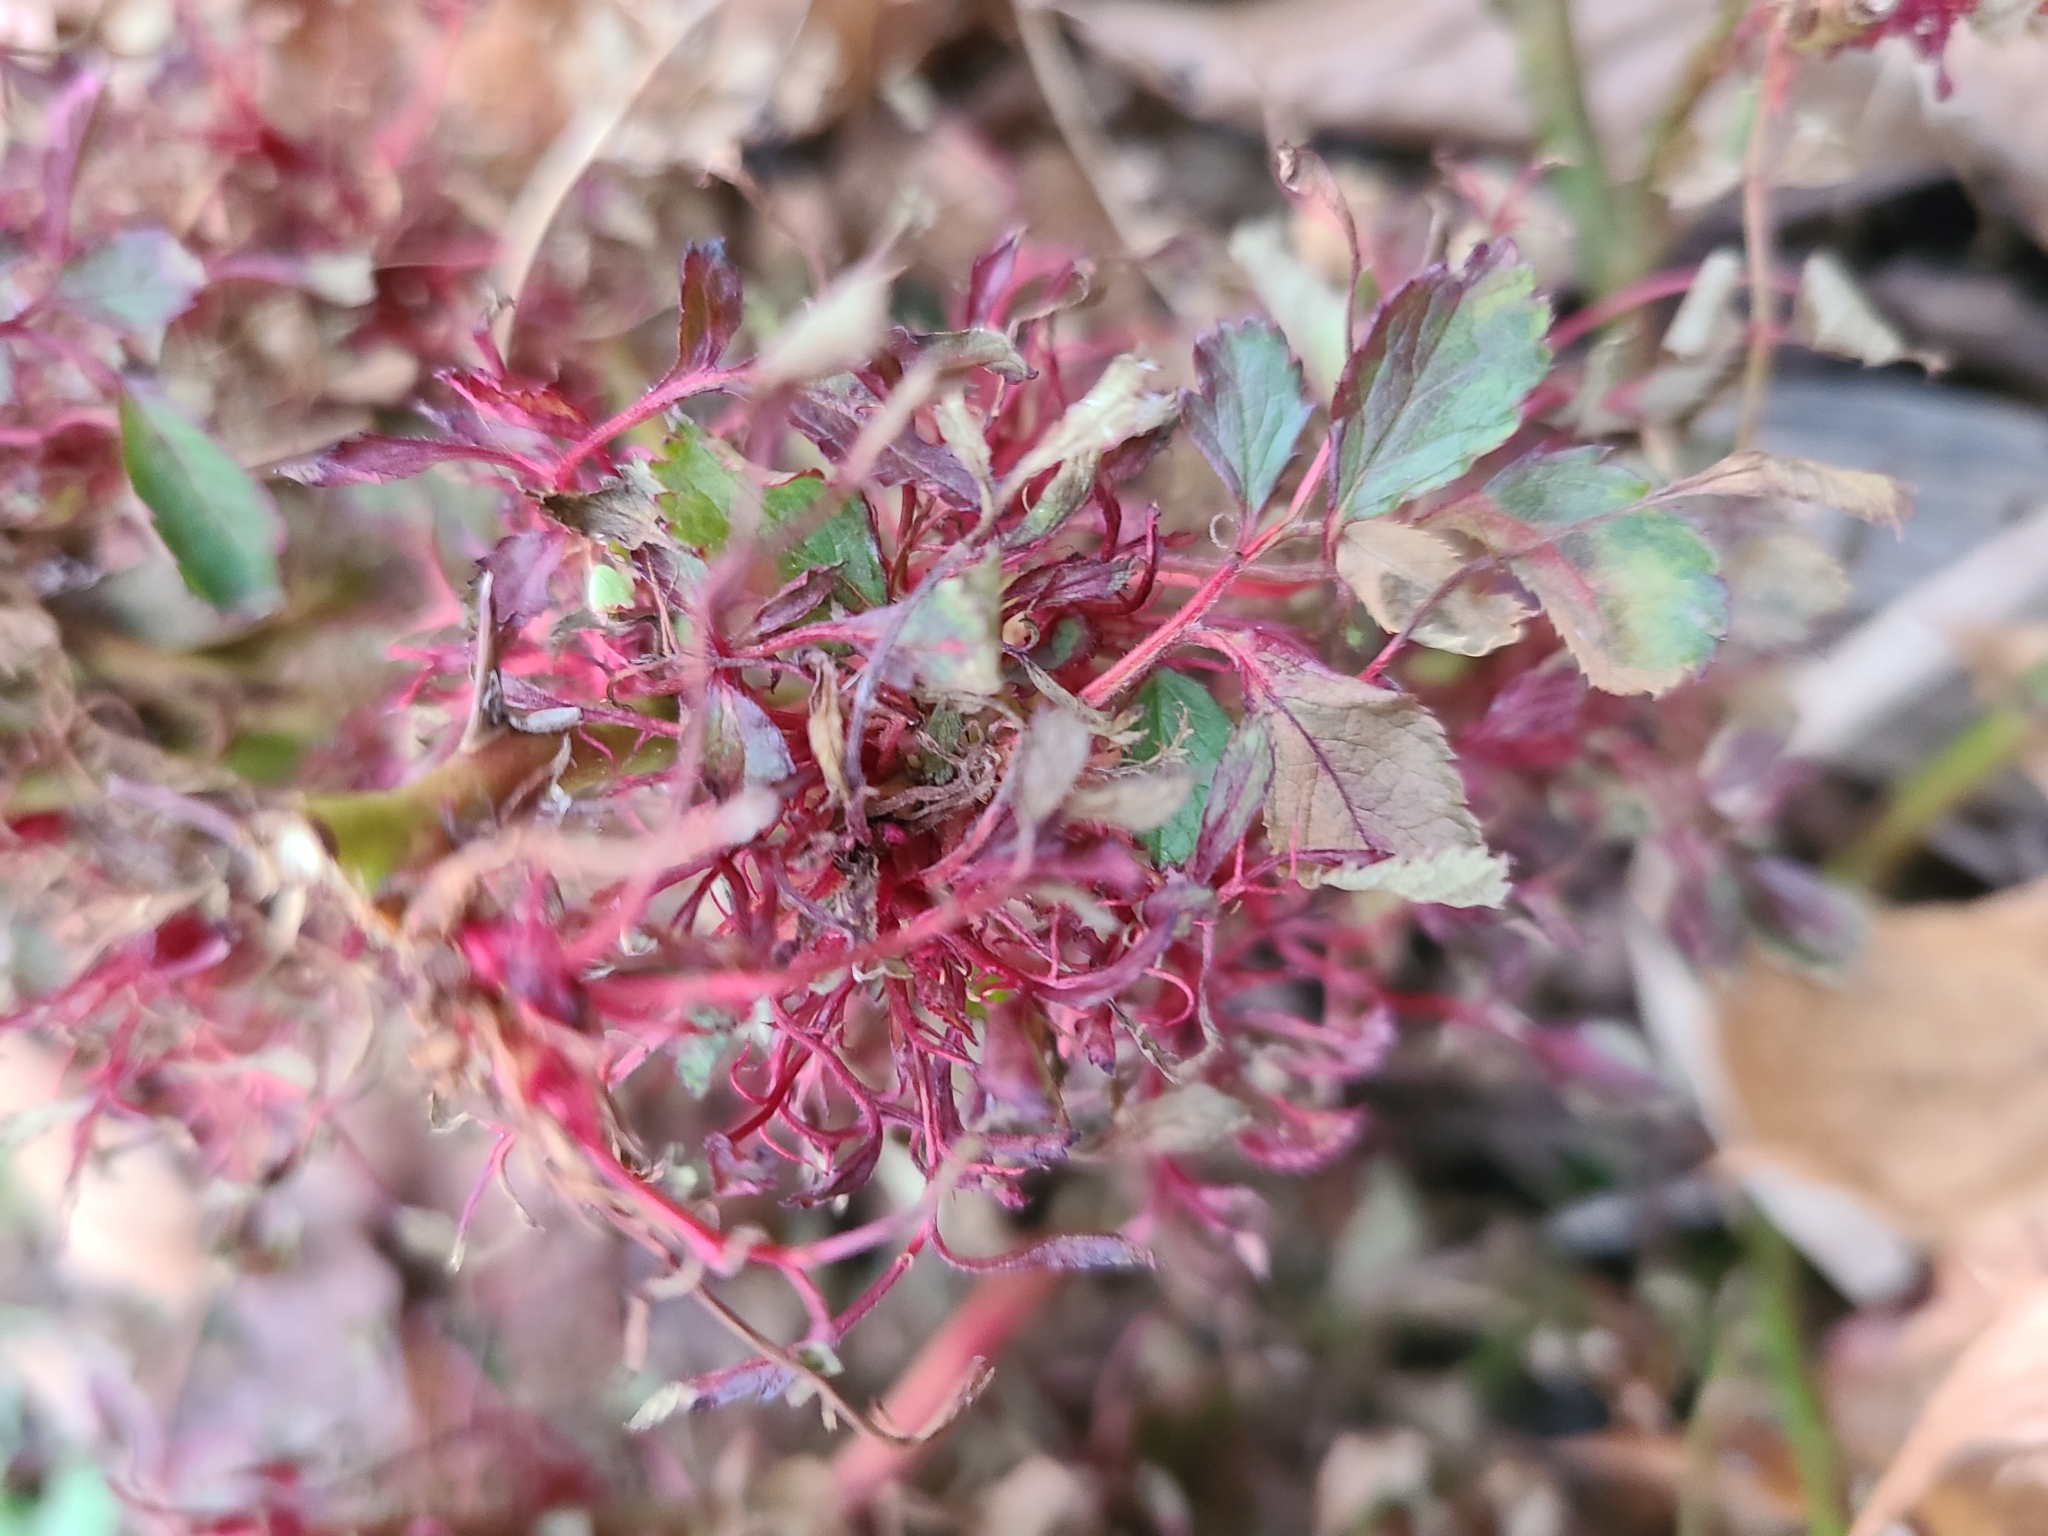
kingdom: Plantae
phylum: Tracheophyta
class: Magnoliopsida
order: Rosales
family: Rosaceae
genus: Rosa
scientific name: Rosa multiflora
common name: Multiflora rose
